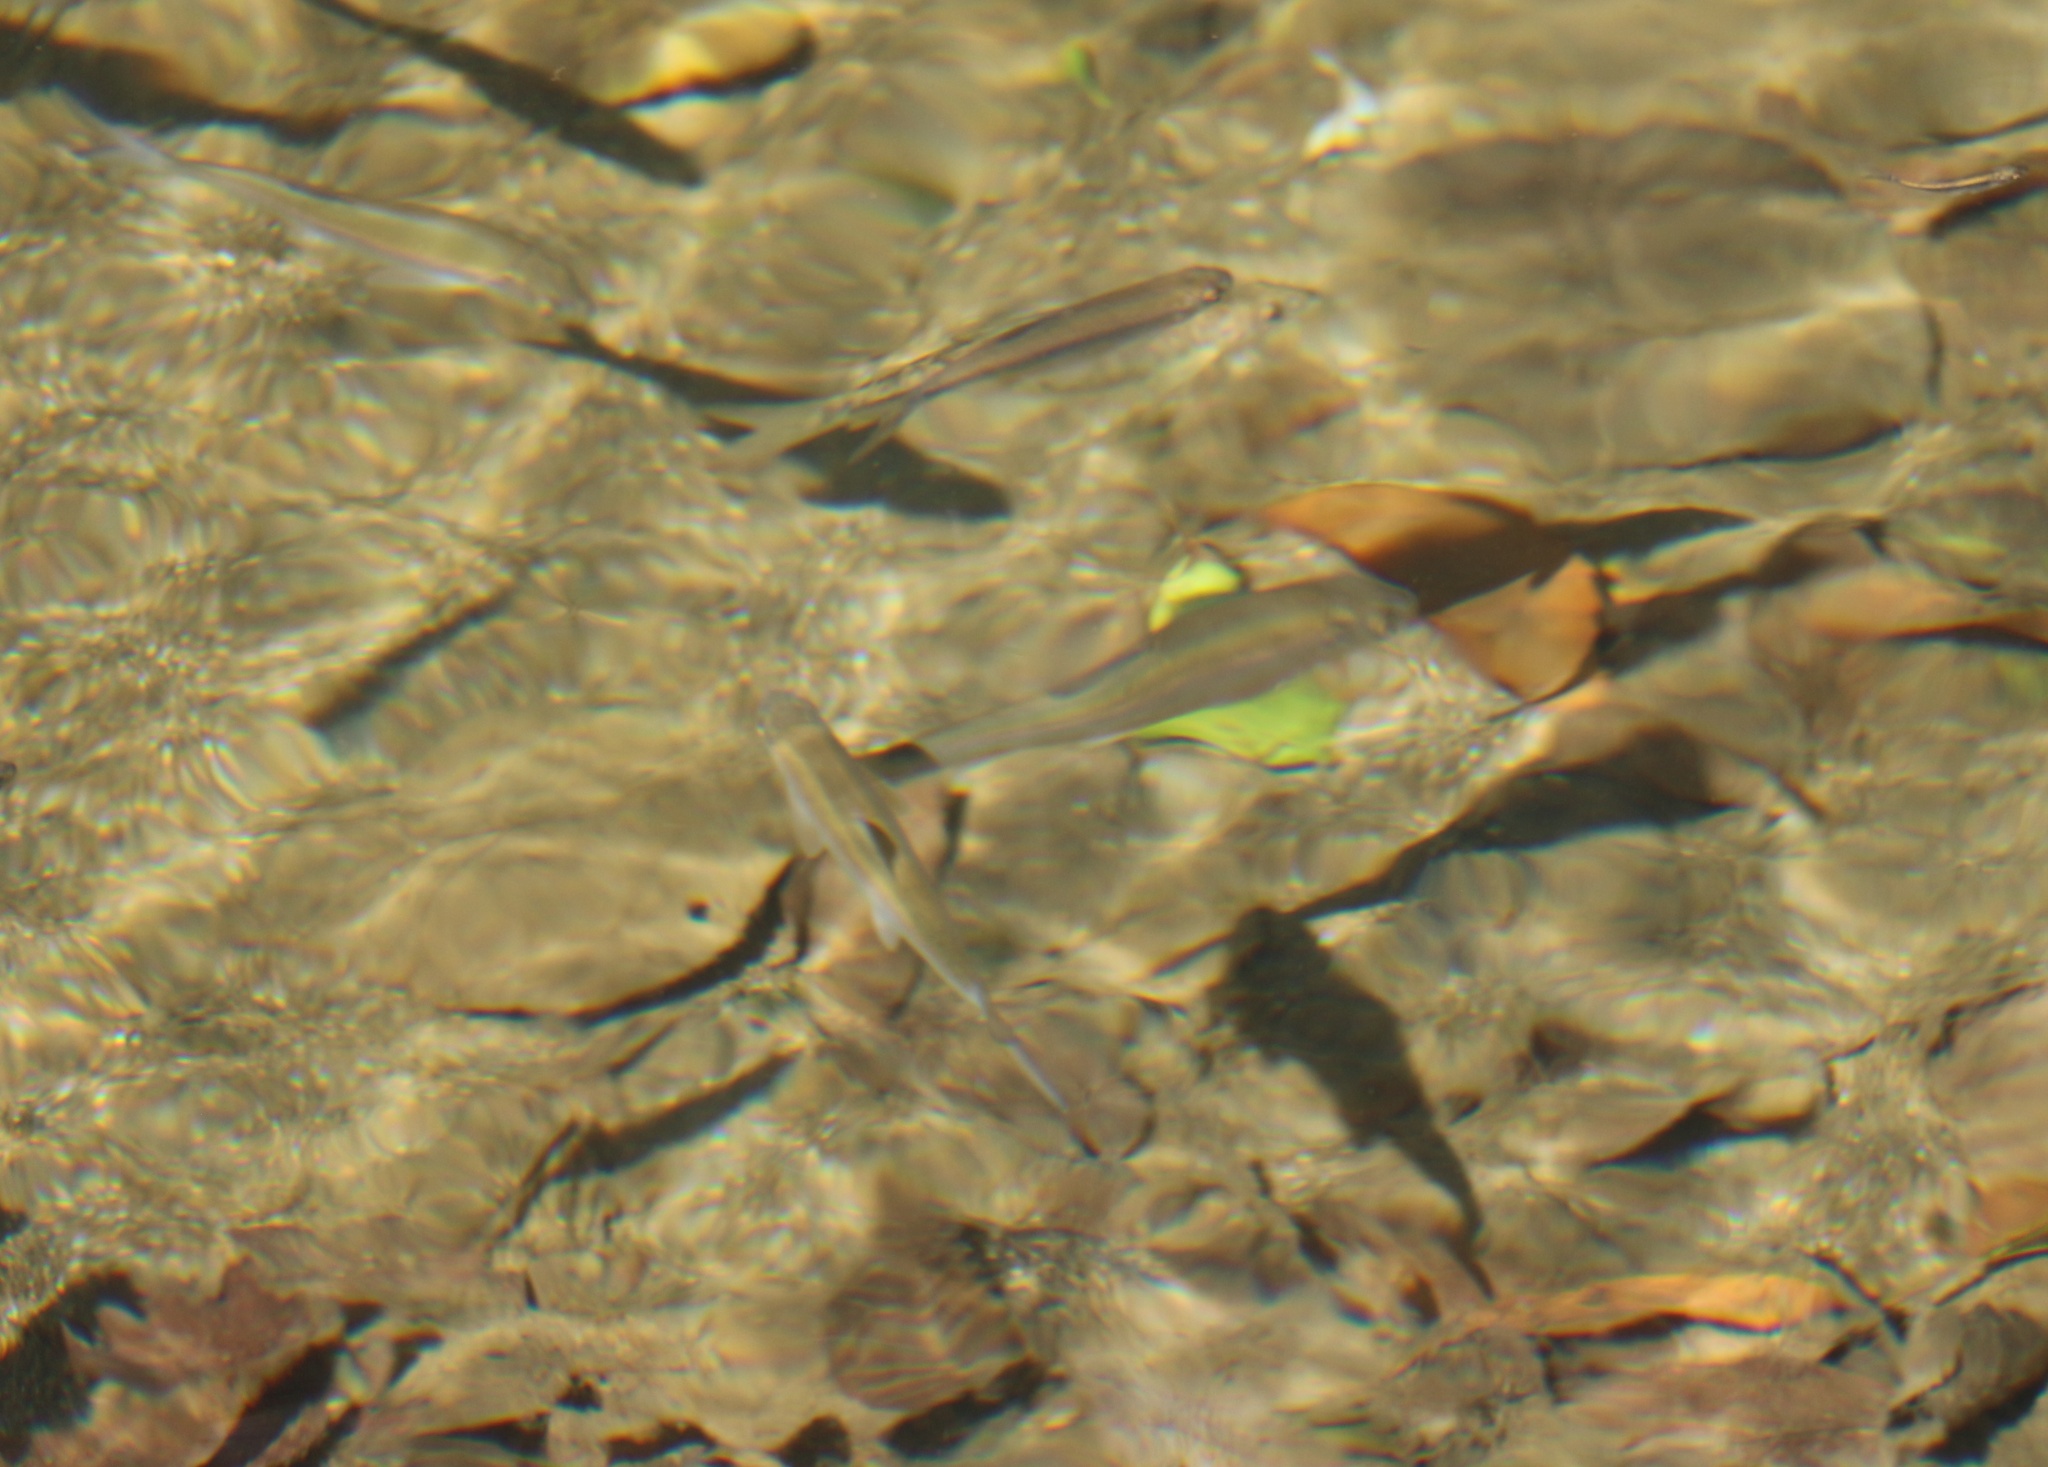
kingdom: Animalia
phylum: Chordata
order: Cypriniformes
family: Cyprinidae
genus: Alburnoides
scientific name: Alburnoides fasciatus
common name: Transcaucasian sprilin
